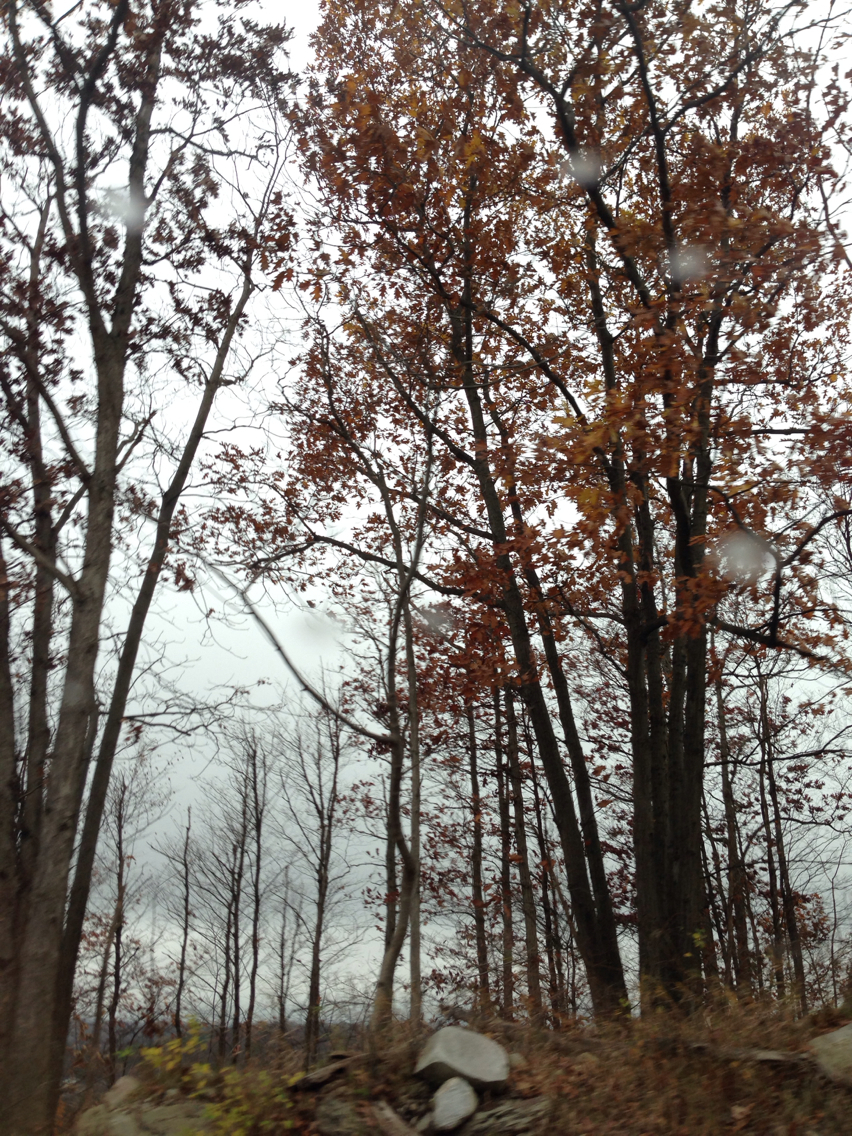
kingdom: Plantae
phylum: Tracheophyta
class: Magnoliopsida
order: Fagales
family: Fagaceae
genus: Quercus
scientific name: Quercus rubra
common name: Red oak
